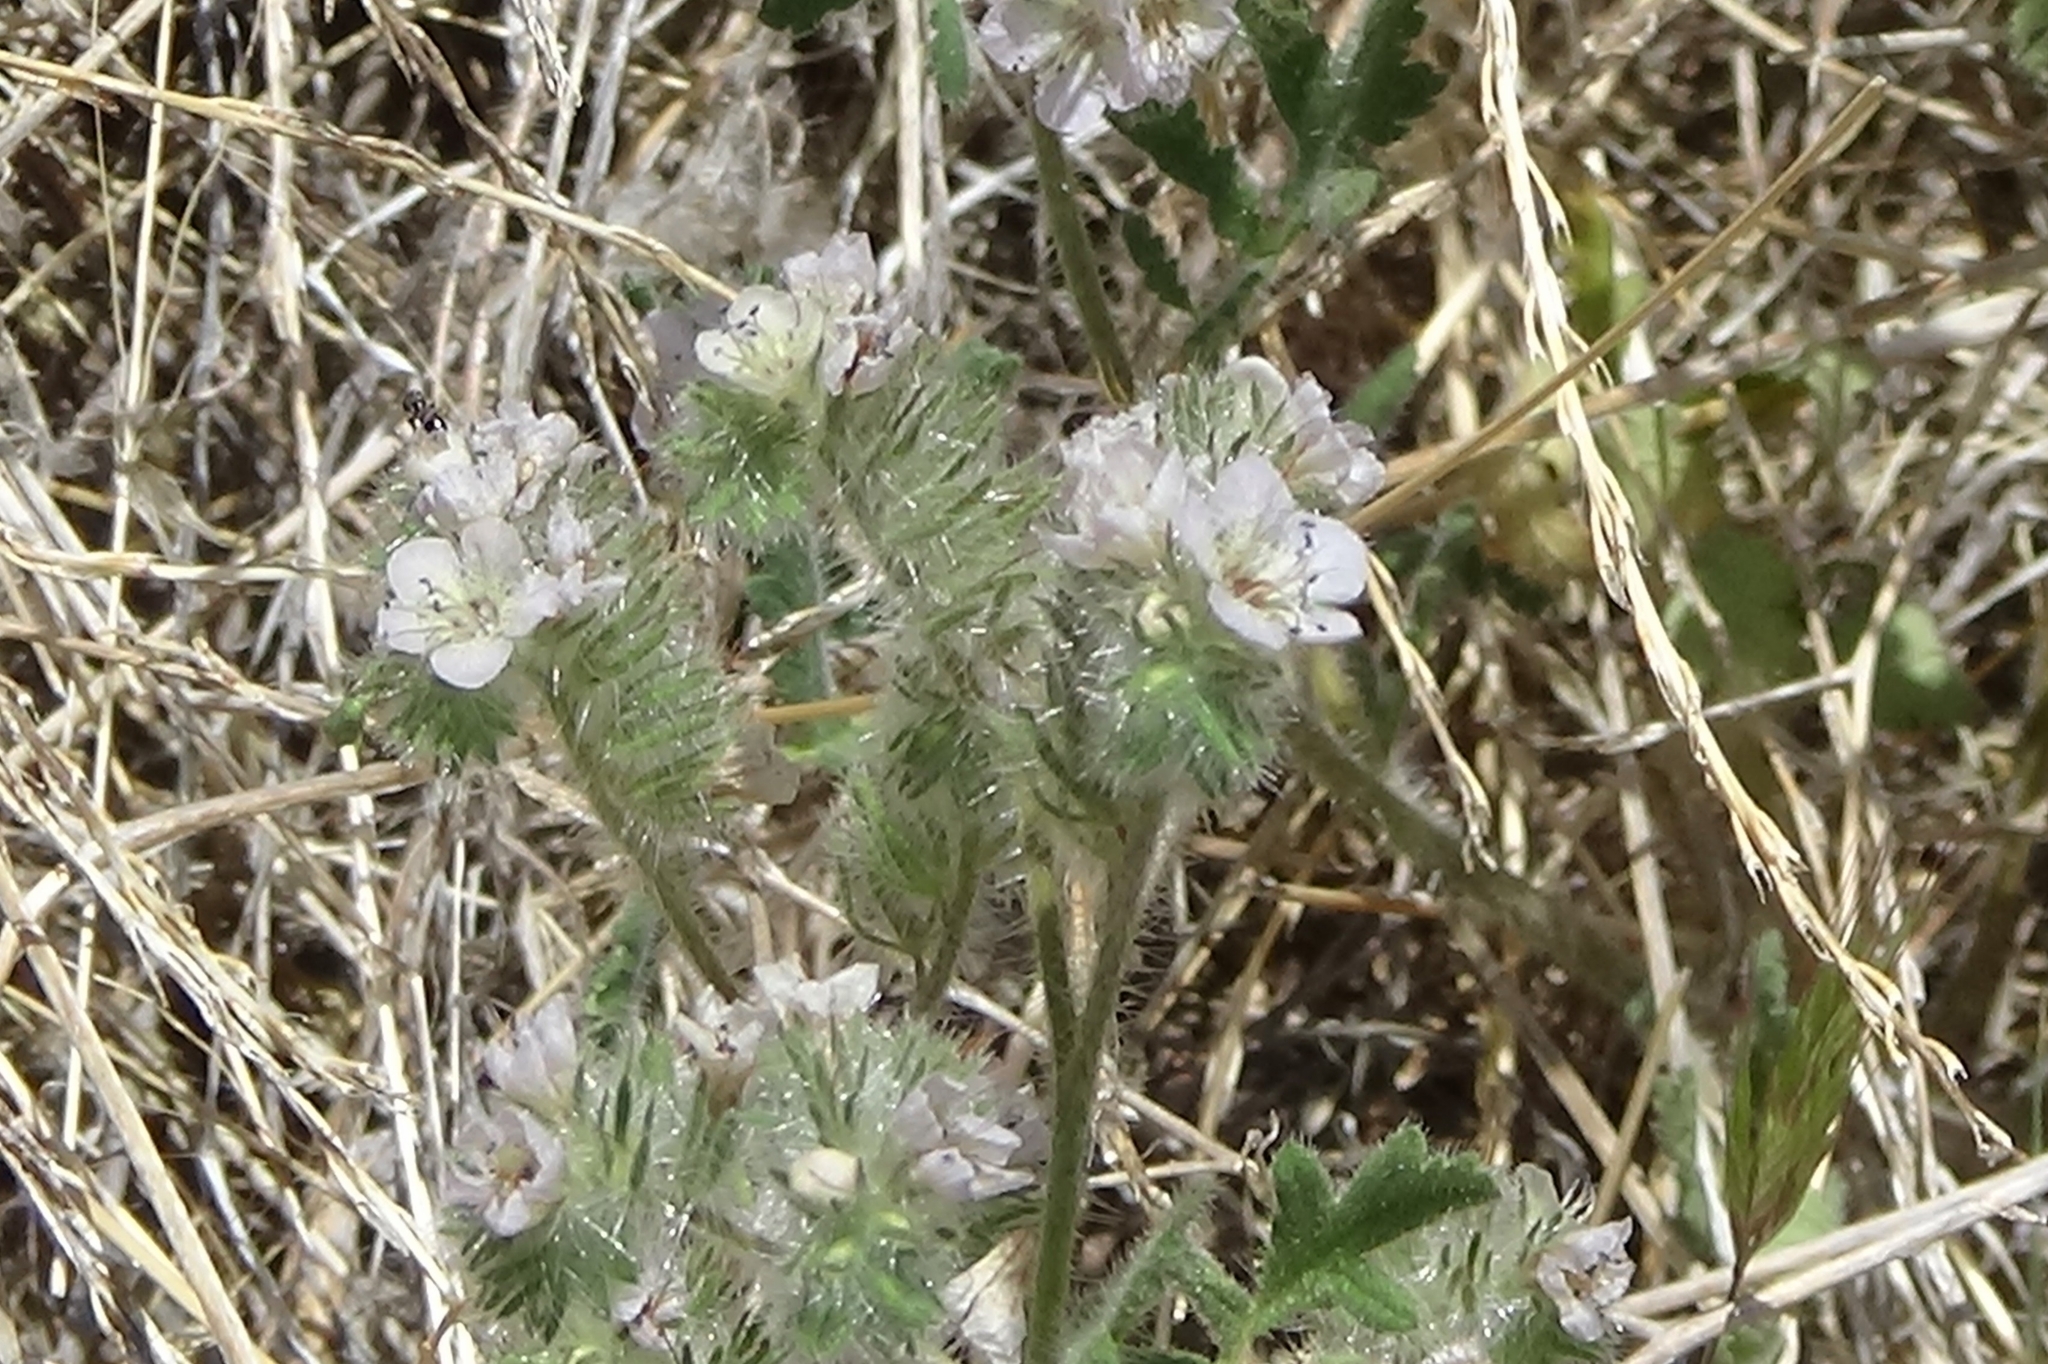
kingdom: Plantae
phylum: Tracheophyta
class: Magnoliopsida
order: Boraginales
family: Hydrophyllaceae
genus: Phacelia
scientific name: Phacelia cicutaria
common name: Caterpillar phacelia
